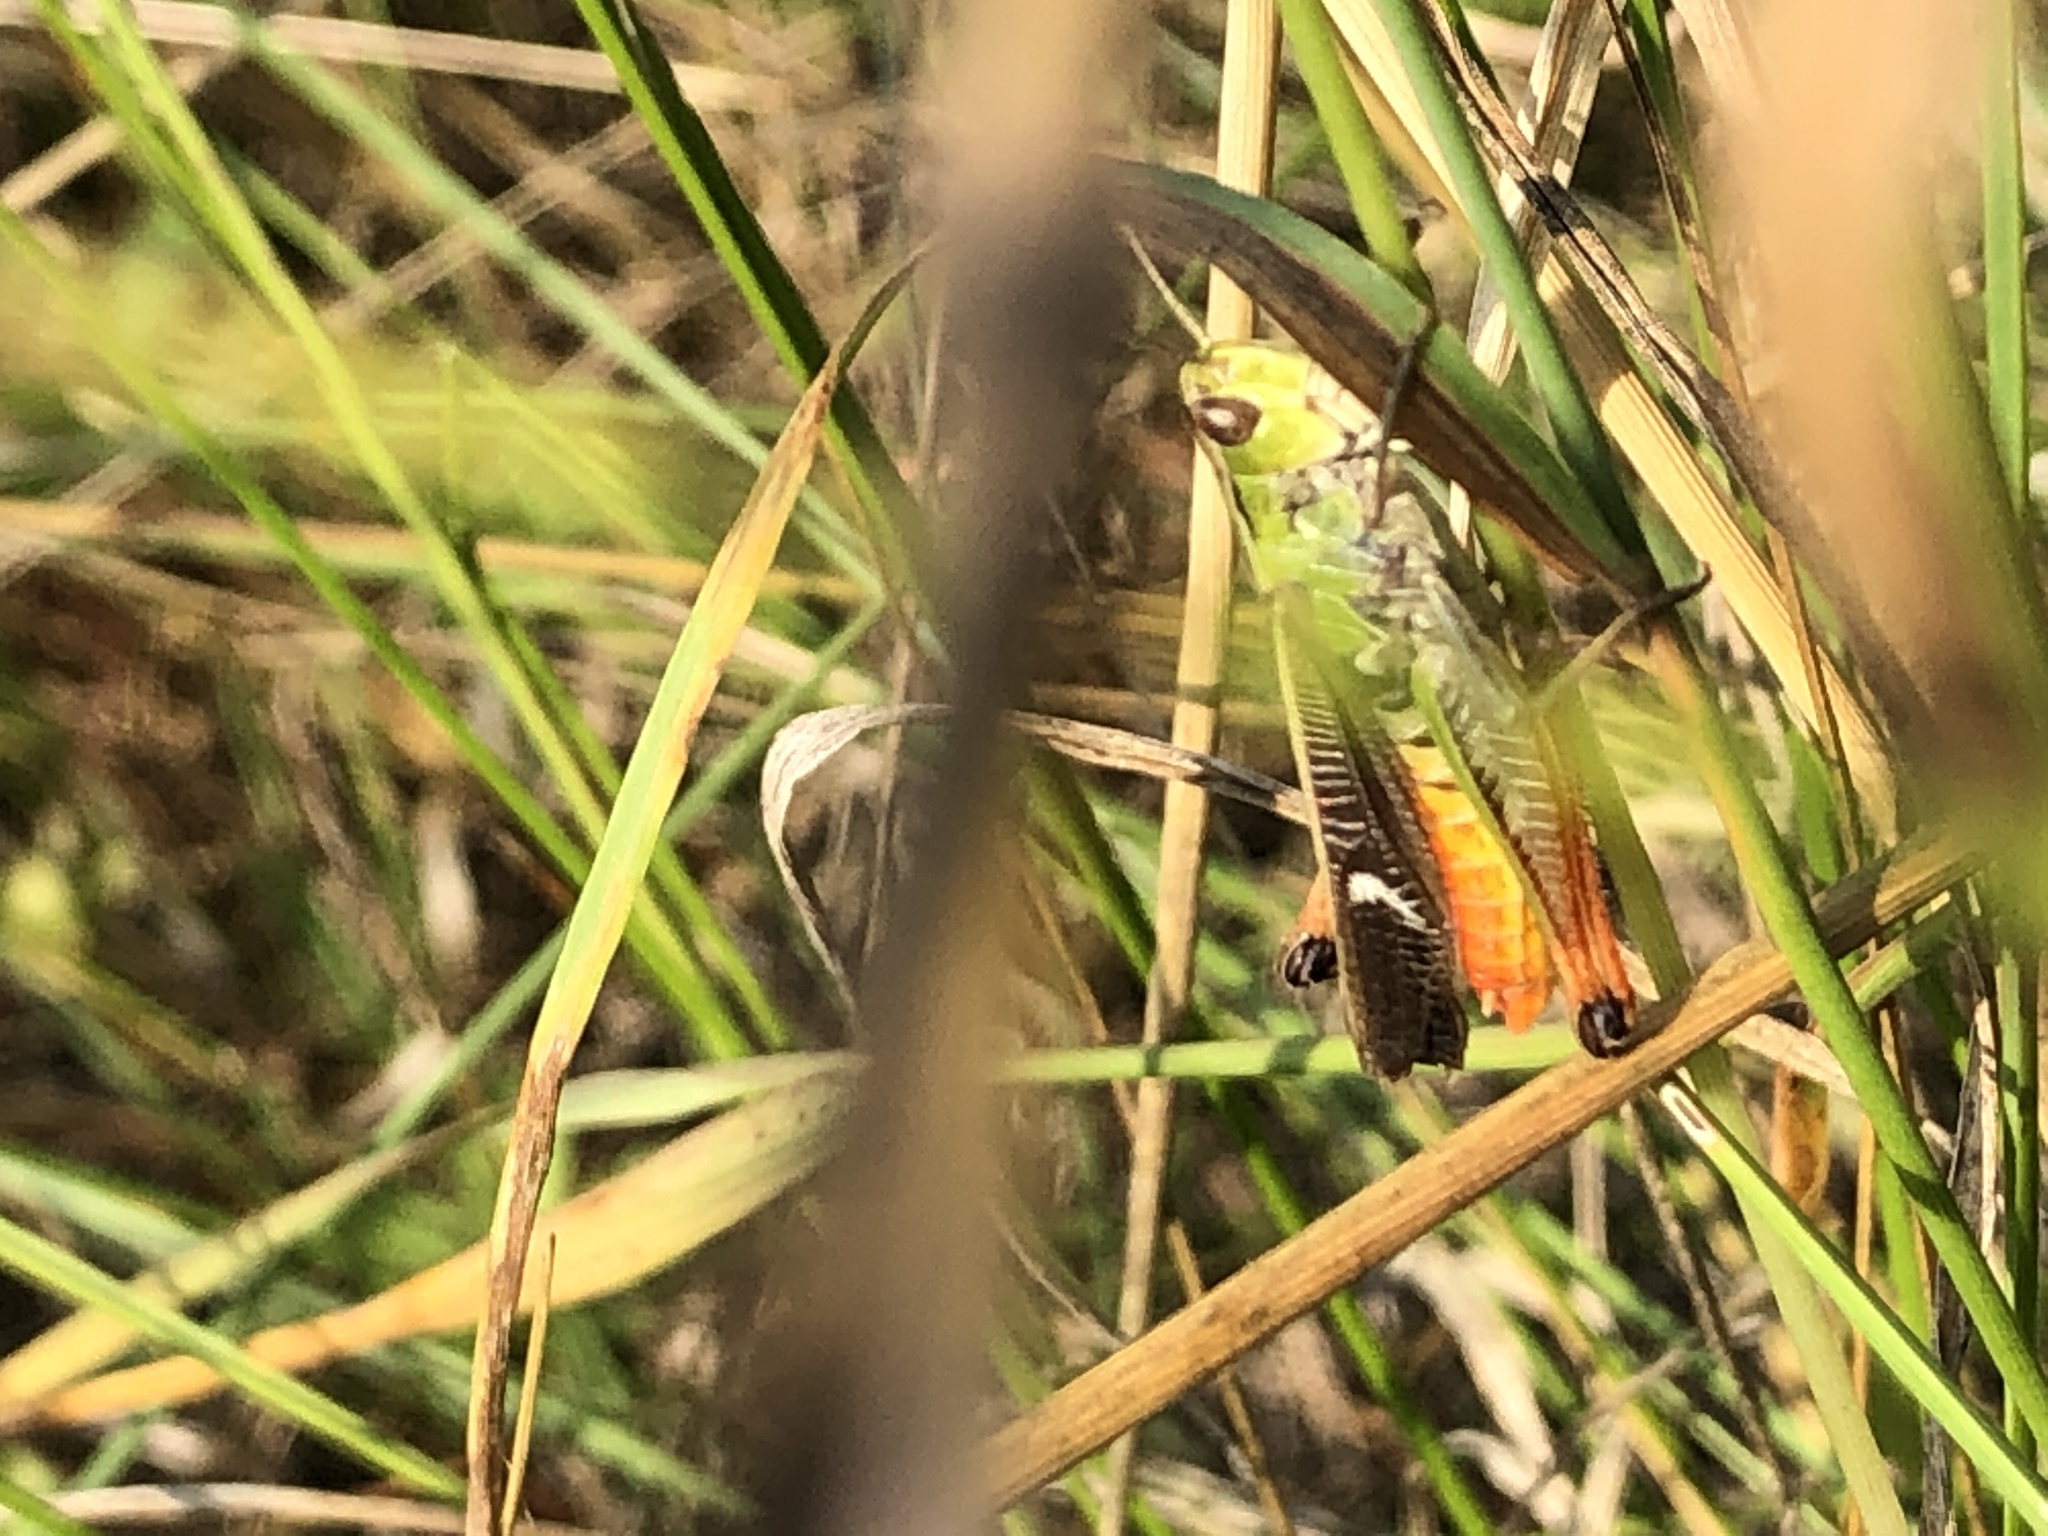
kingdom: Animalia
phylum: Arthropoda
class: Insecta
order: Orthoptera
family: Acrididae
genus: Stenobothrus
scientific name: Stenobothrus lineatus
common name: Stripe-winged grasshopper
